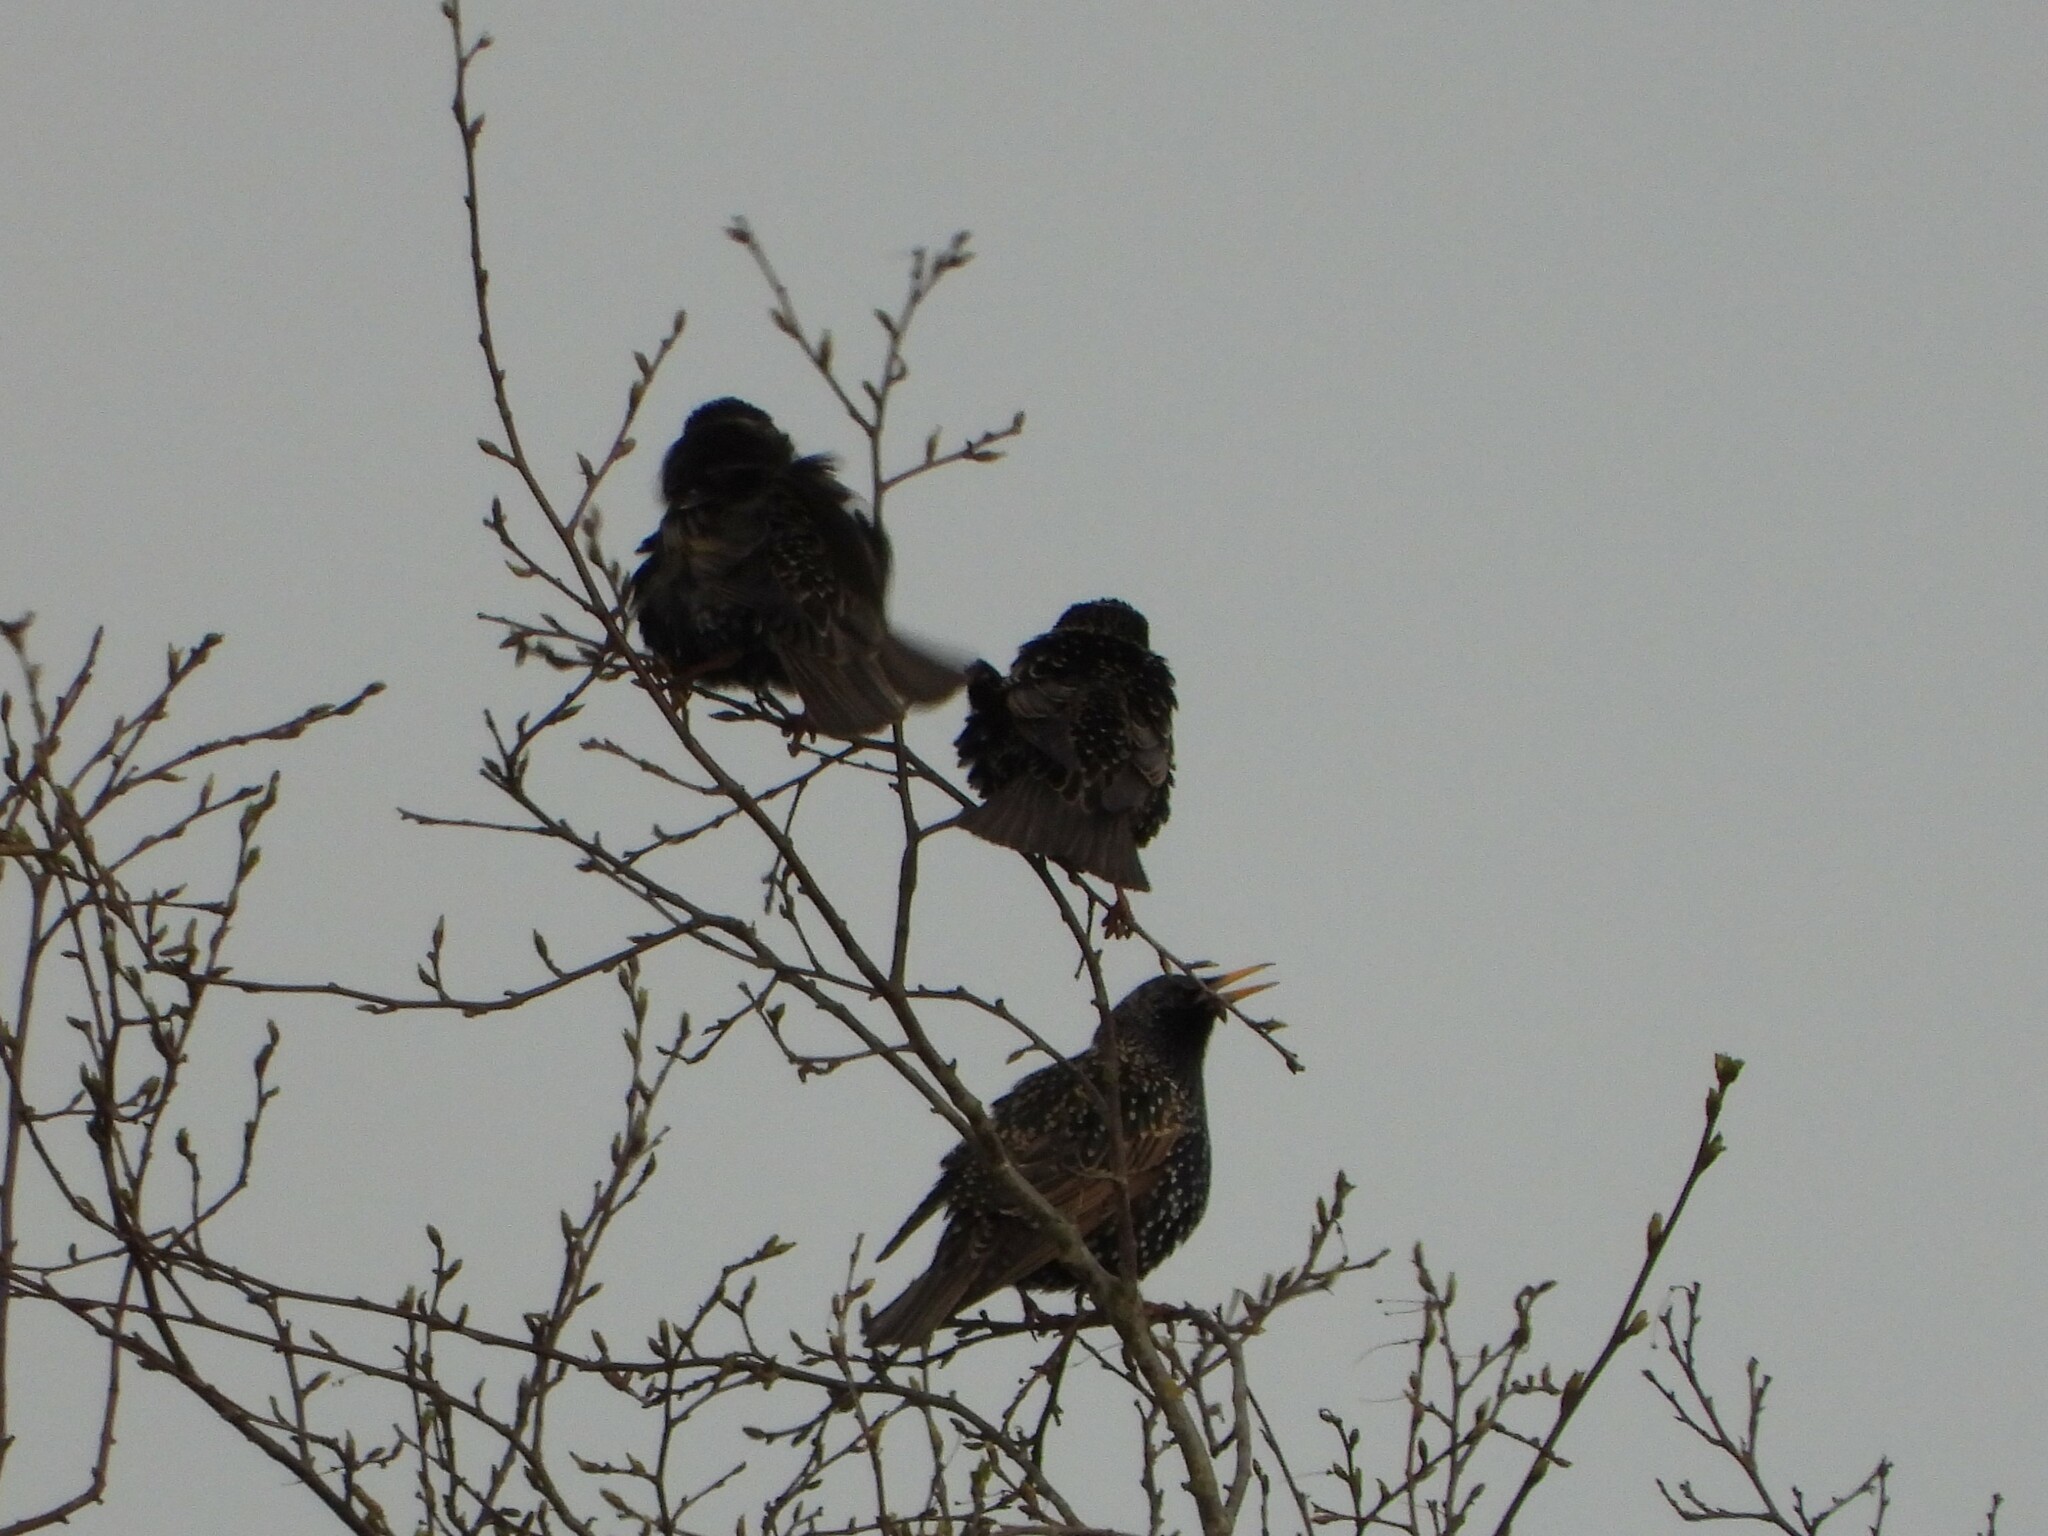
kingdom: Animalia
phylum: Chordata
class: Aves
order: Passeriformes
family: Sturnidae
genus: Sturnus
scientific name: Sturnus vulgaris
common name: Common starling
